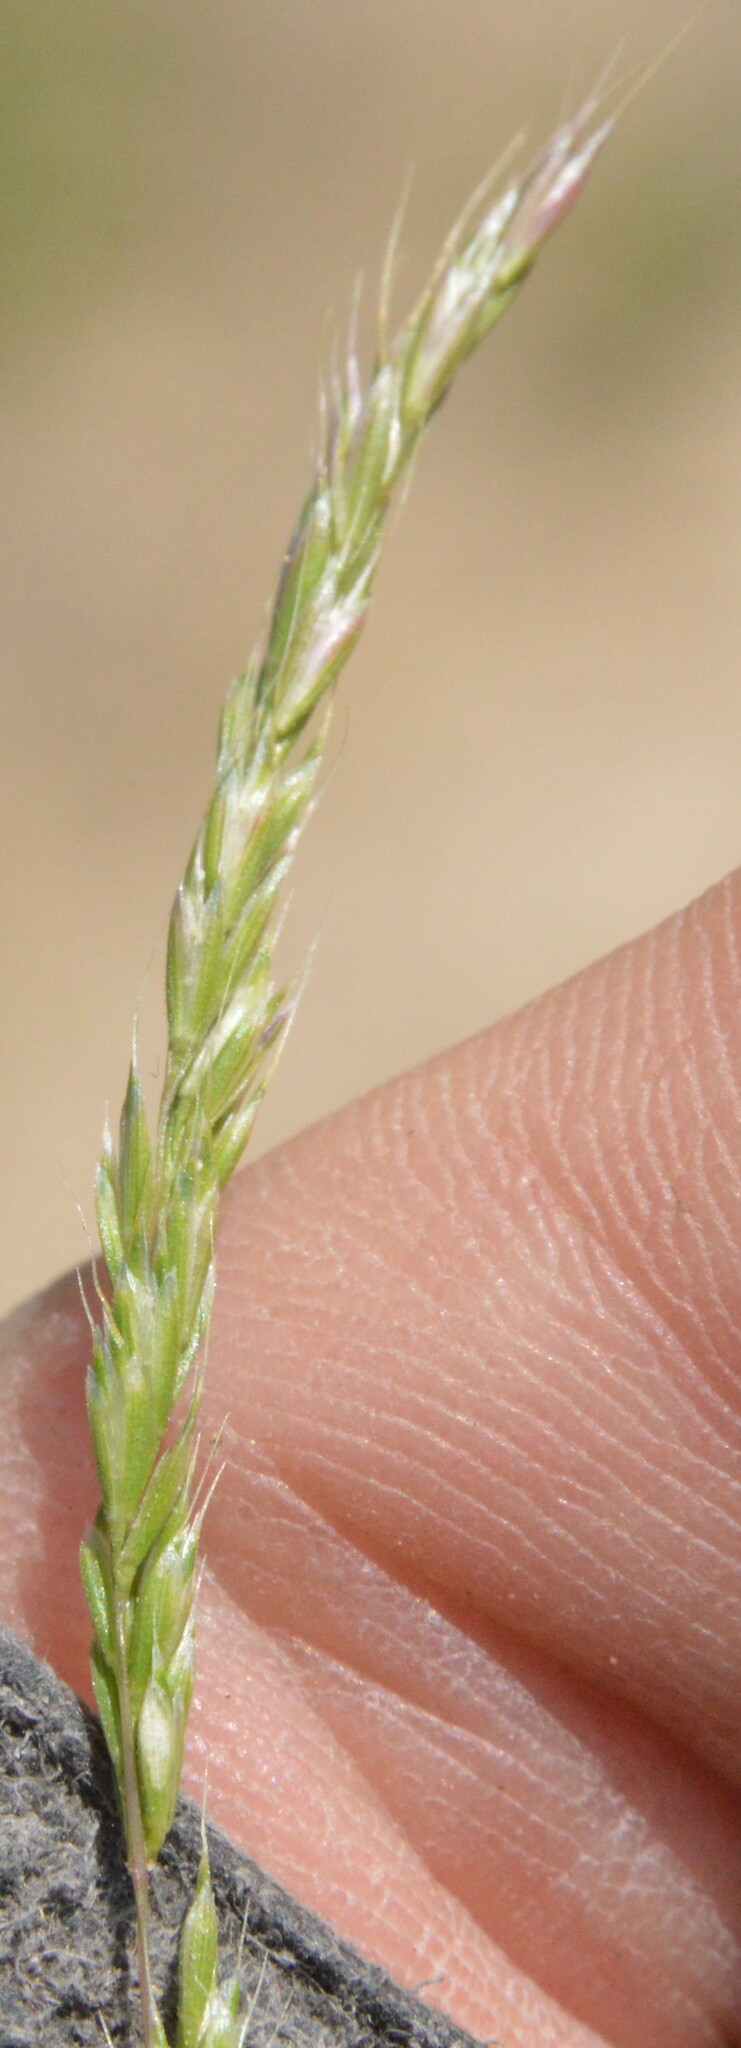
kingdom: Plantae
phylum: Tracheophyta
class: Liliopsida
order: Poales
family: Poaceae
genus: Trisetum
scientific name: Trisetum interruptum
